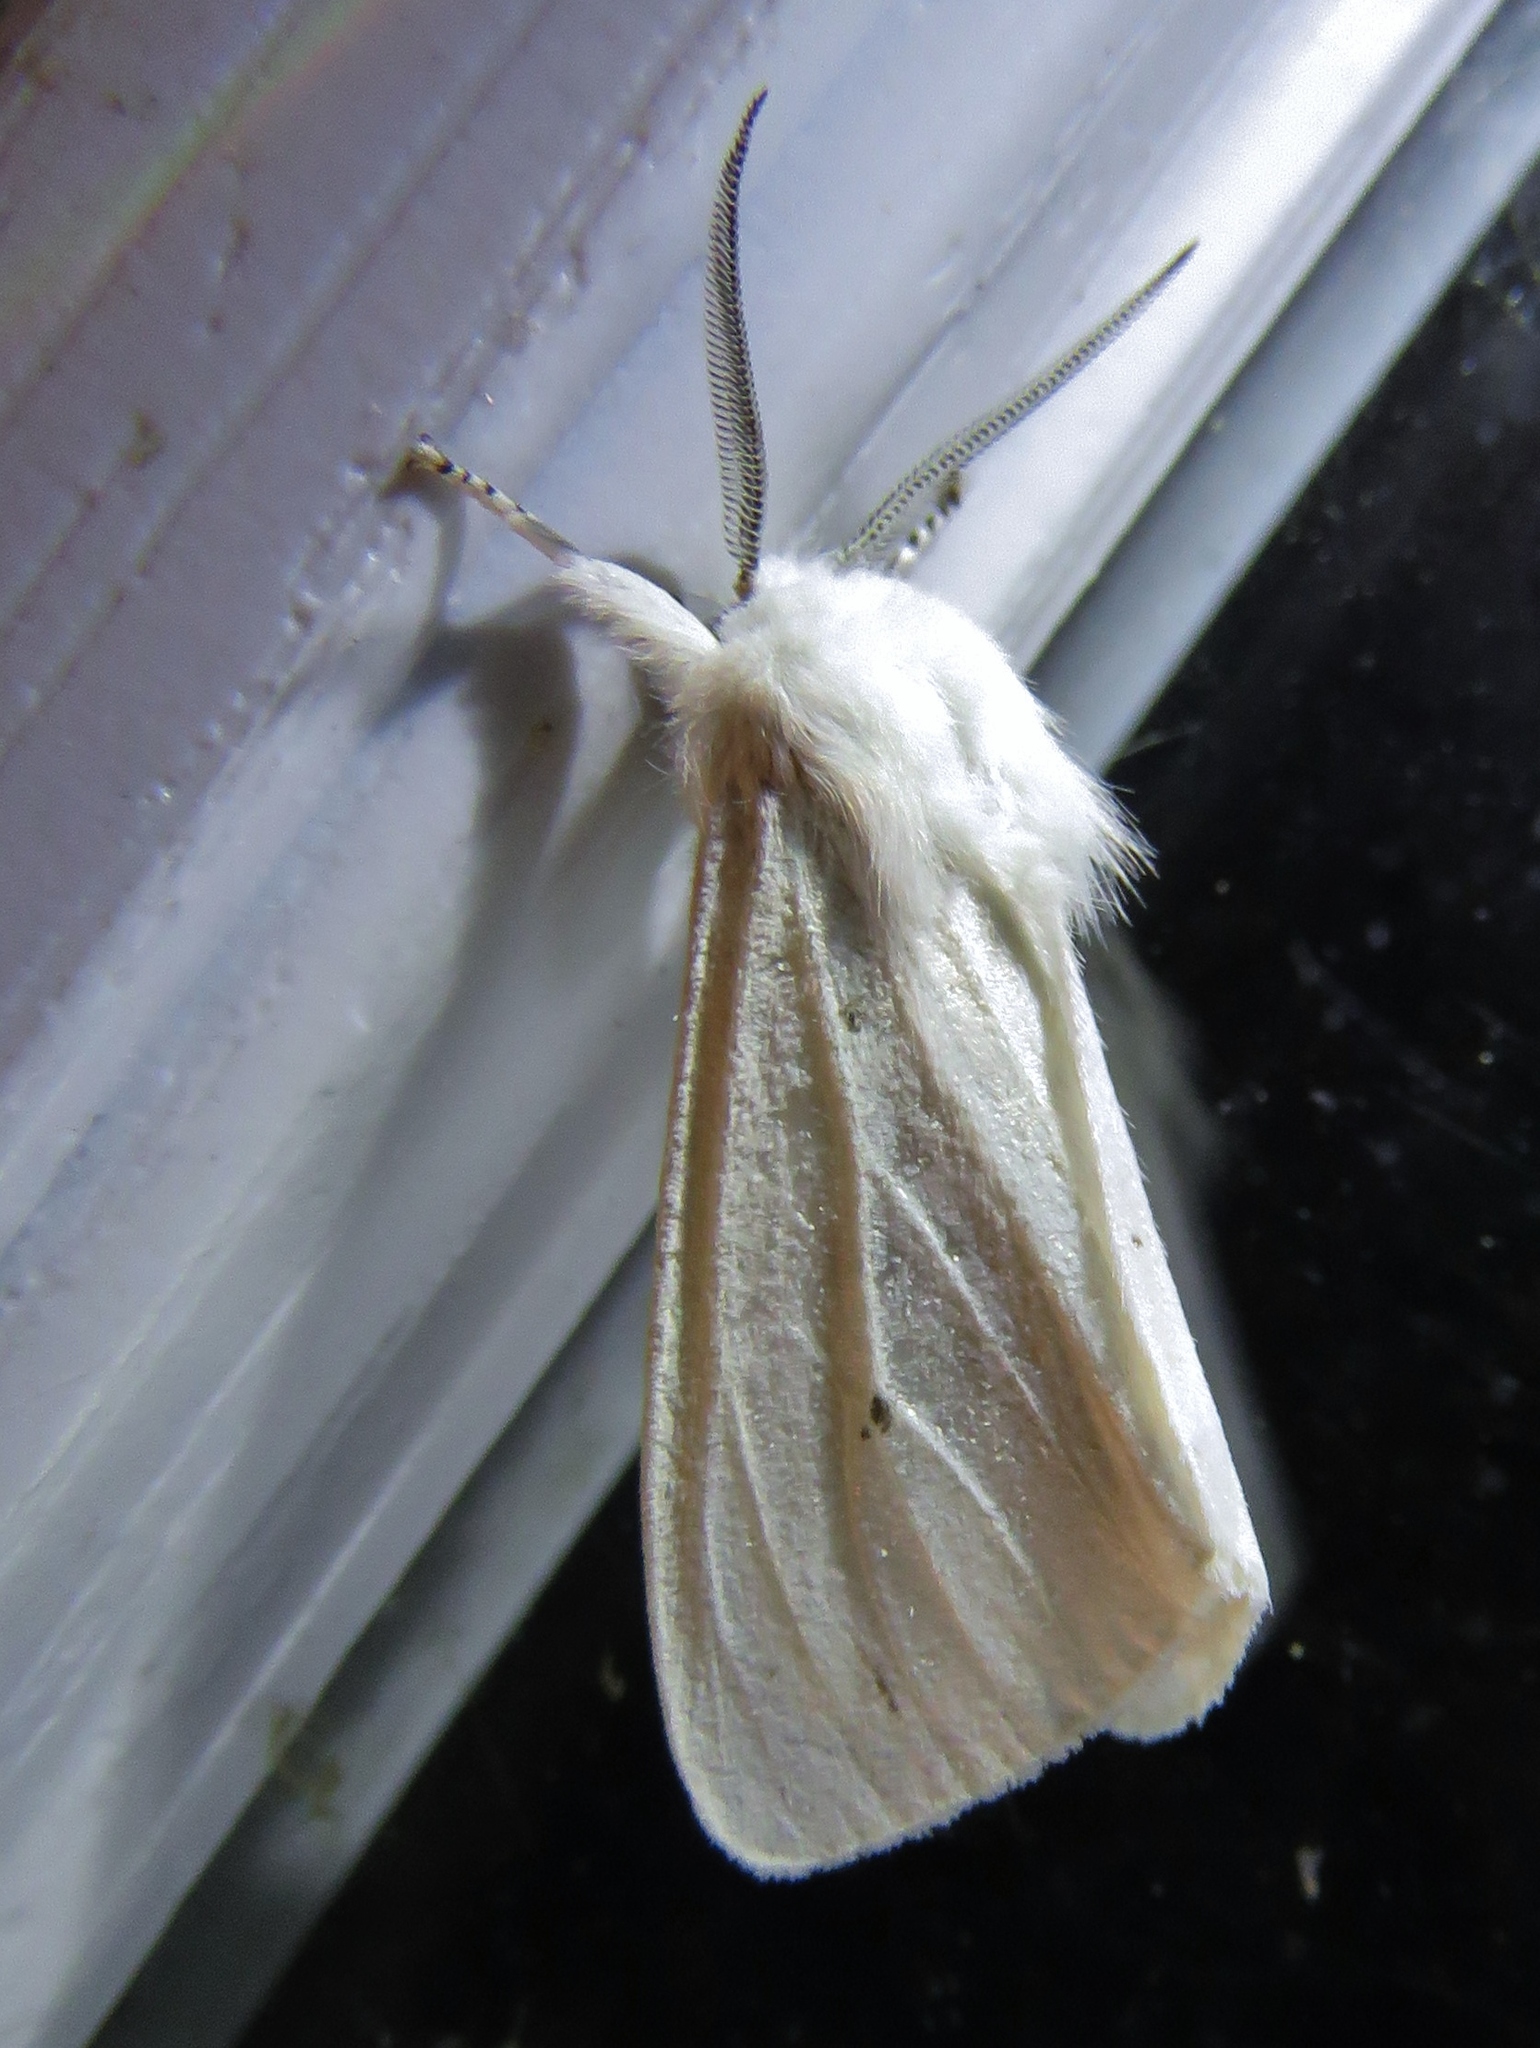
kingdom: Animalia
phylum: Arthropoda
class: Insecta
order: Lepidoptera
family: Erebidae
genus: Hyphantria
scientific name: Hyphantria cunea
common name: American white moth
